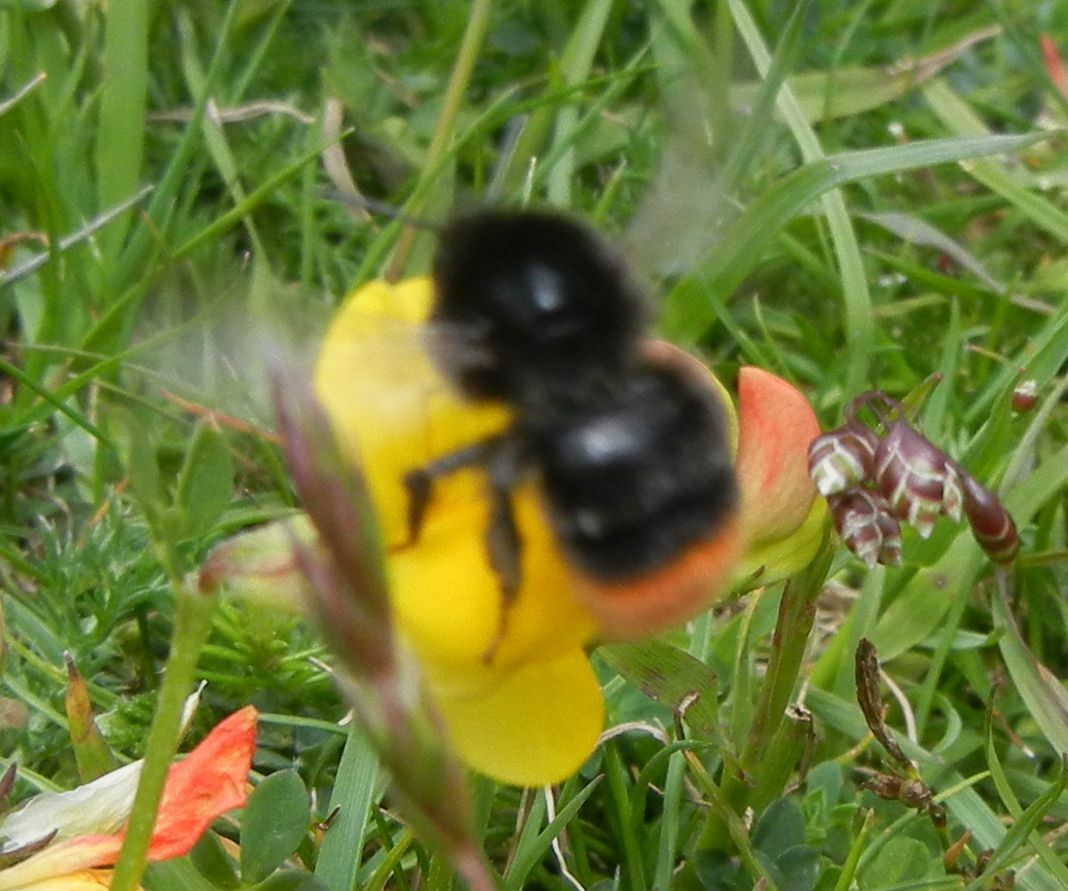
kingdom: Animalia
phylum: Arthropoda
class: Insecta
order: Hymenoptera
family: Apidae
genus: Bombus
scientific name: Bombus lapidarius
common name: Large red-tailed humble-bee
